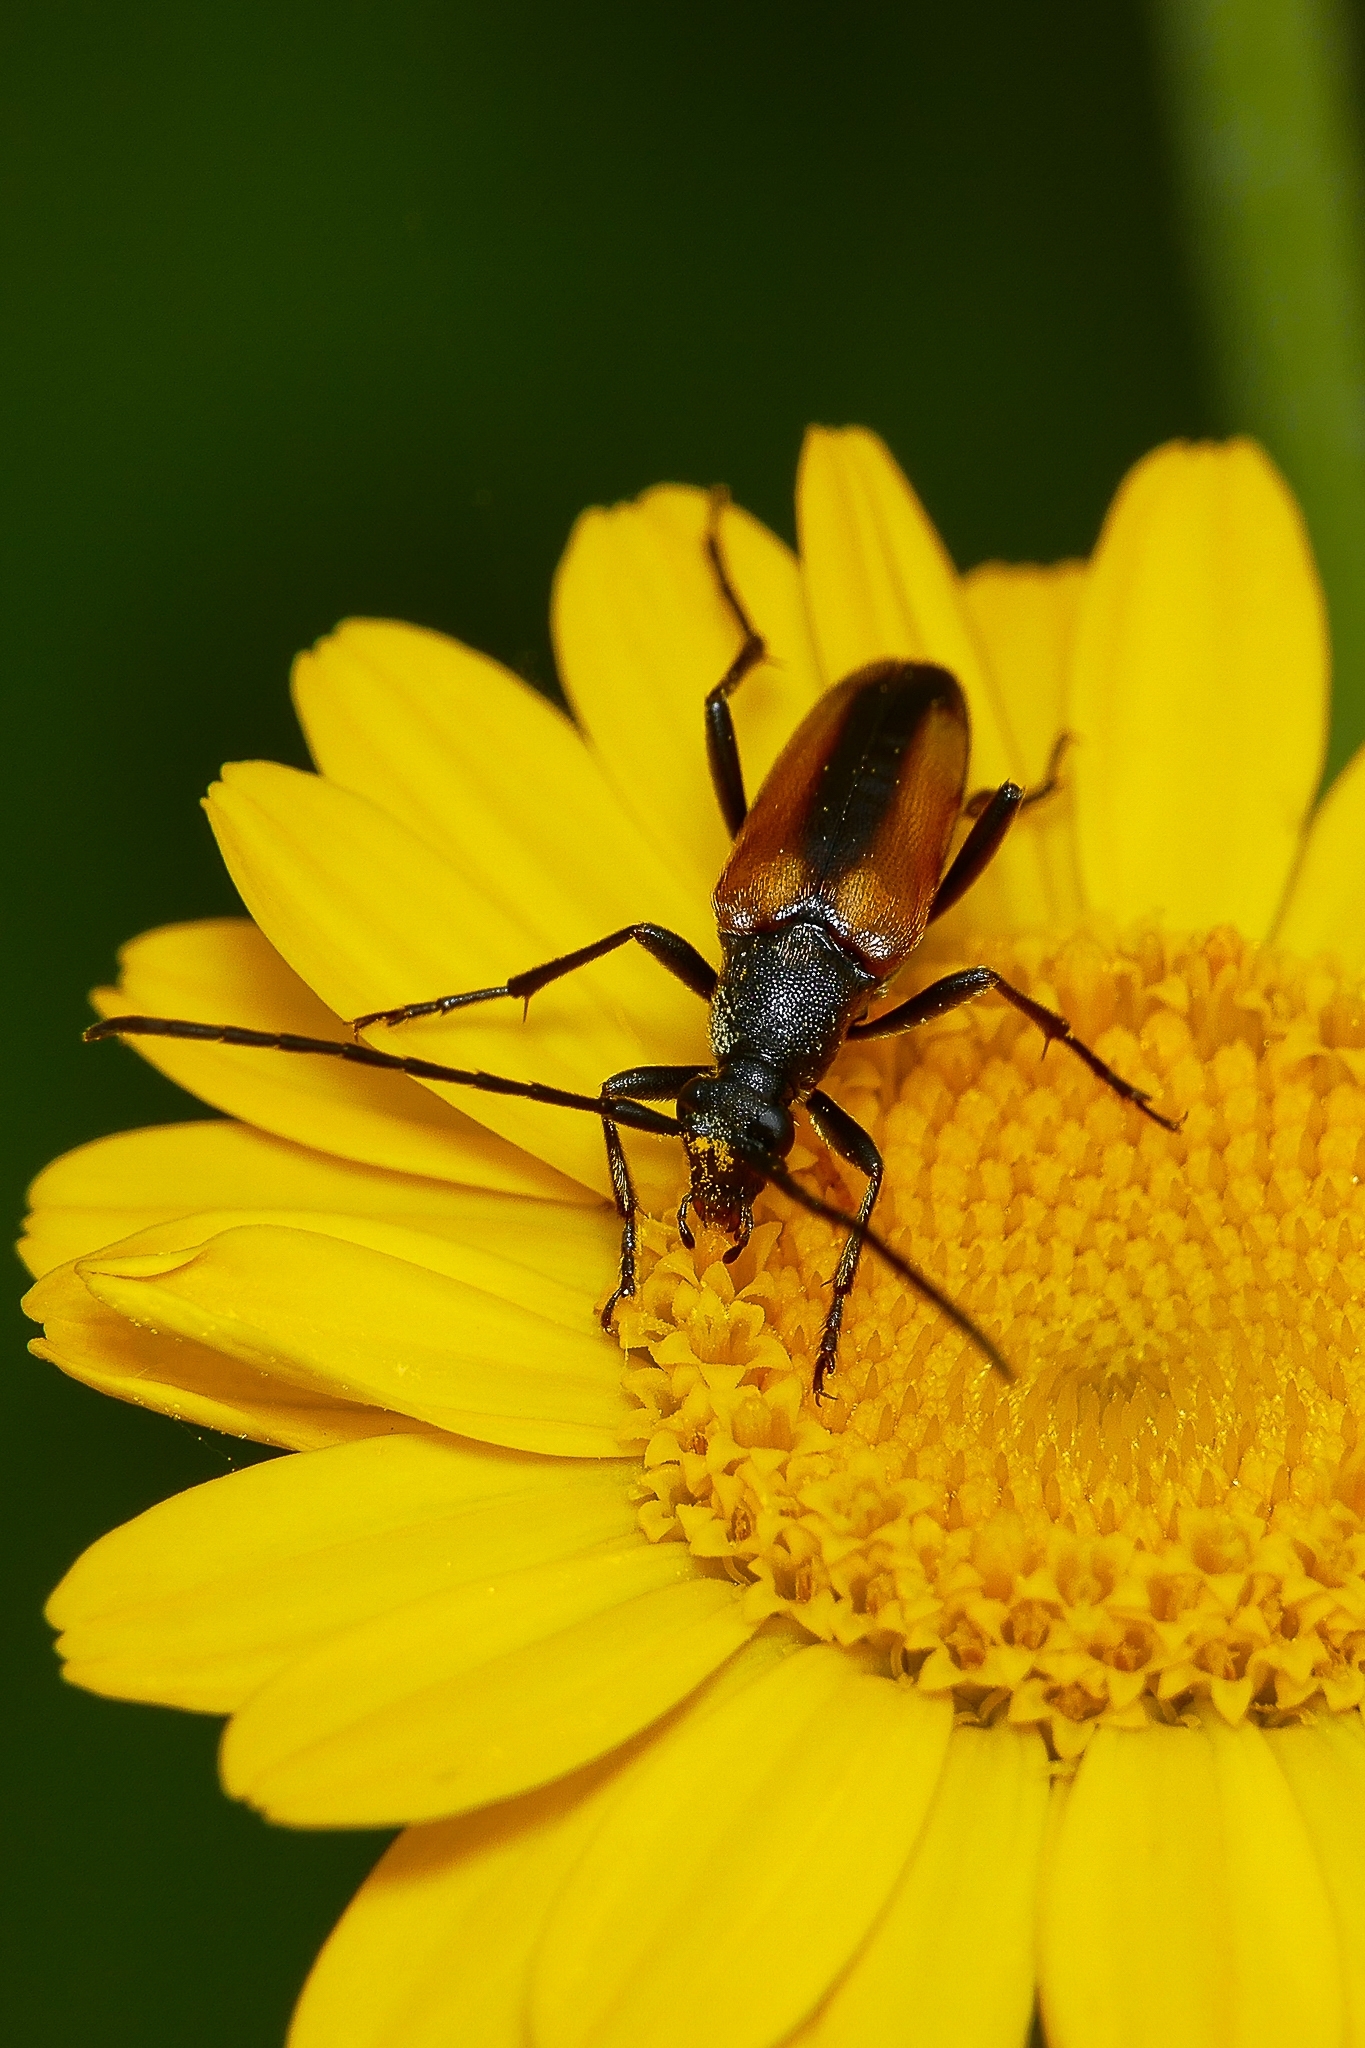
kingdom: Animalia
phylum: Arthropoda
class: Insecta
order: Coleoptera
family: Cerambycidae
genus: Stenurella
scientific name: Stenurella melanura
